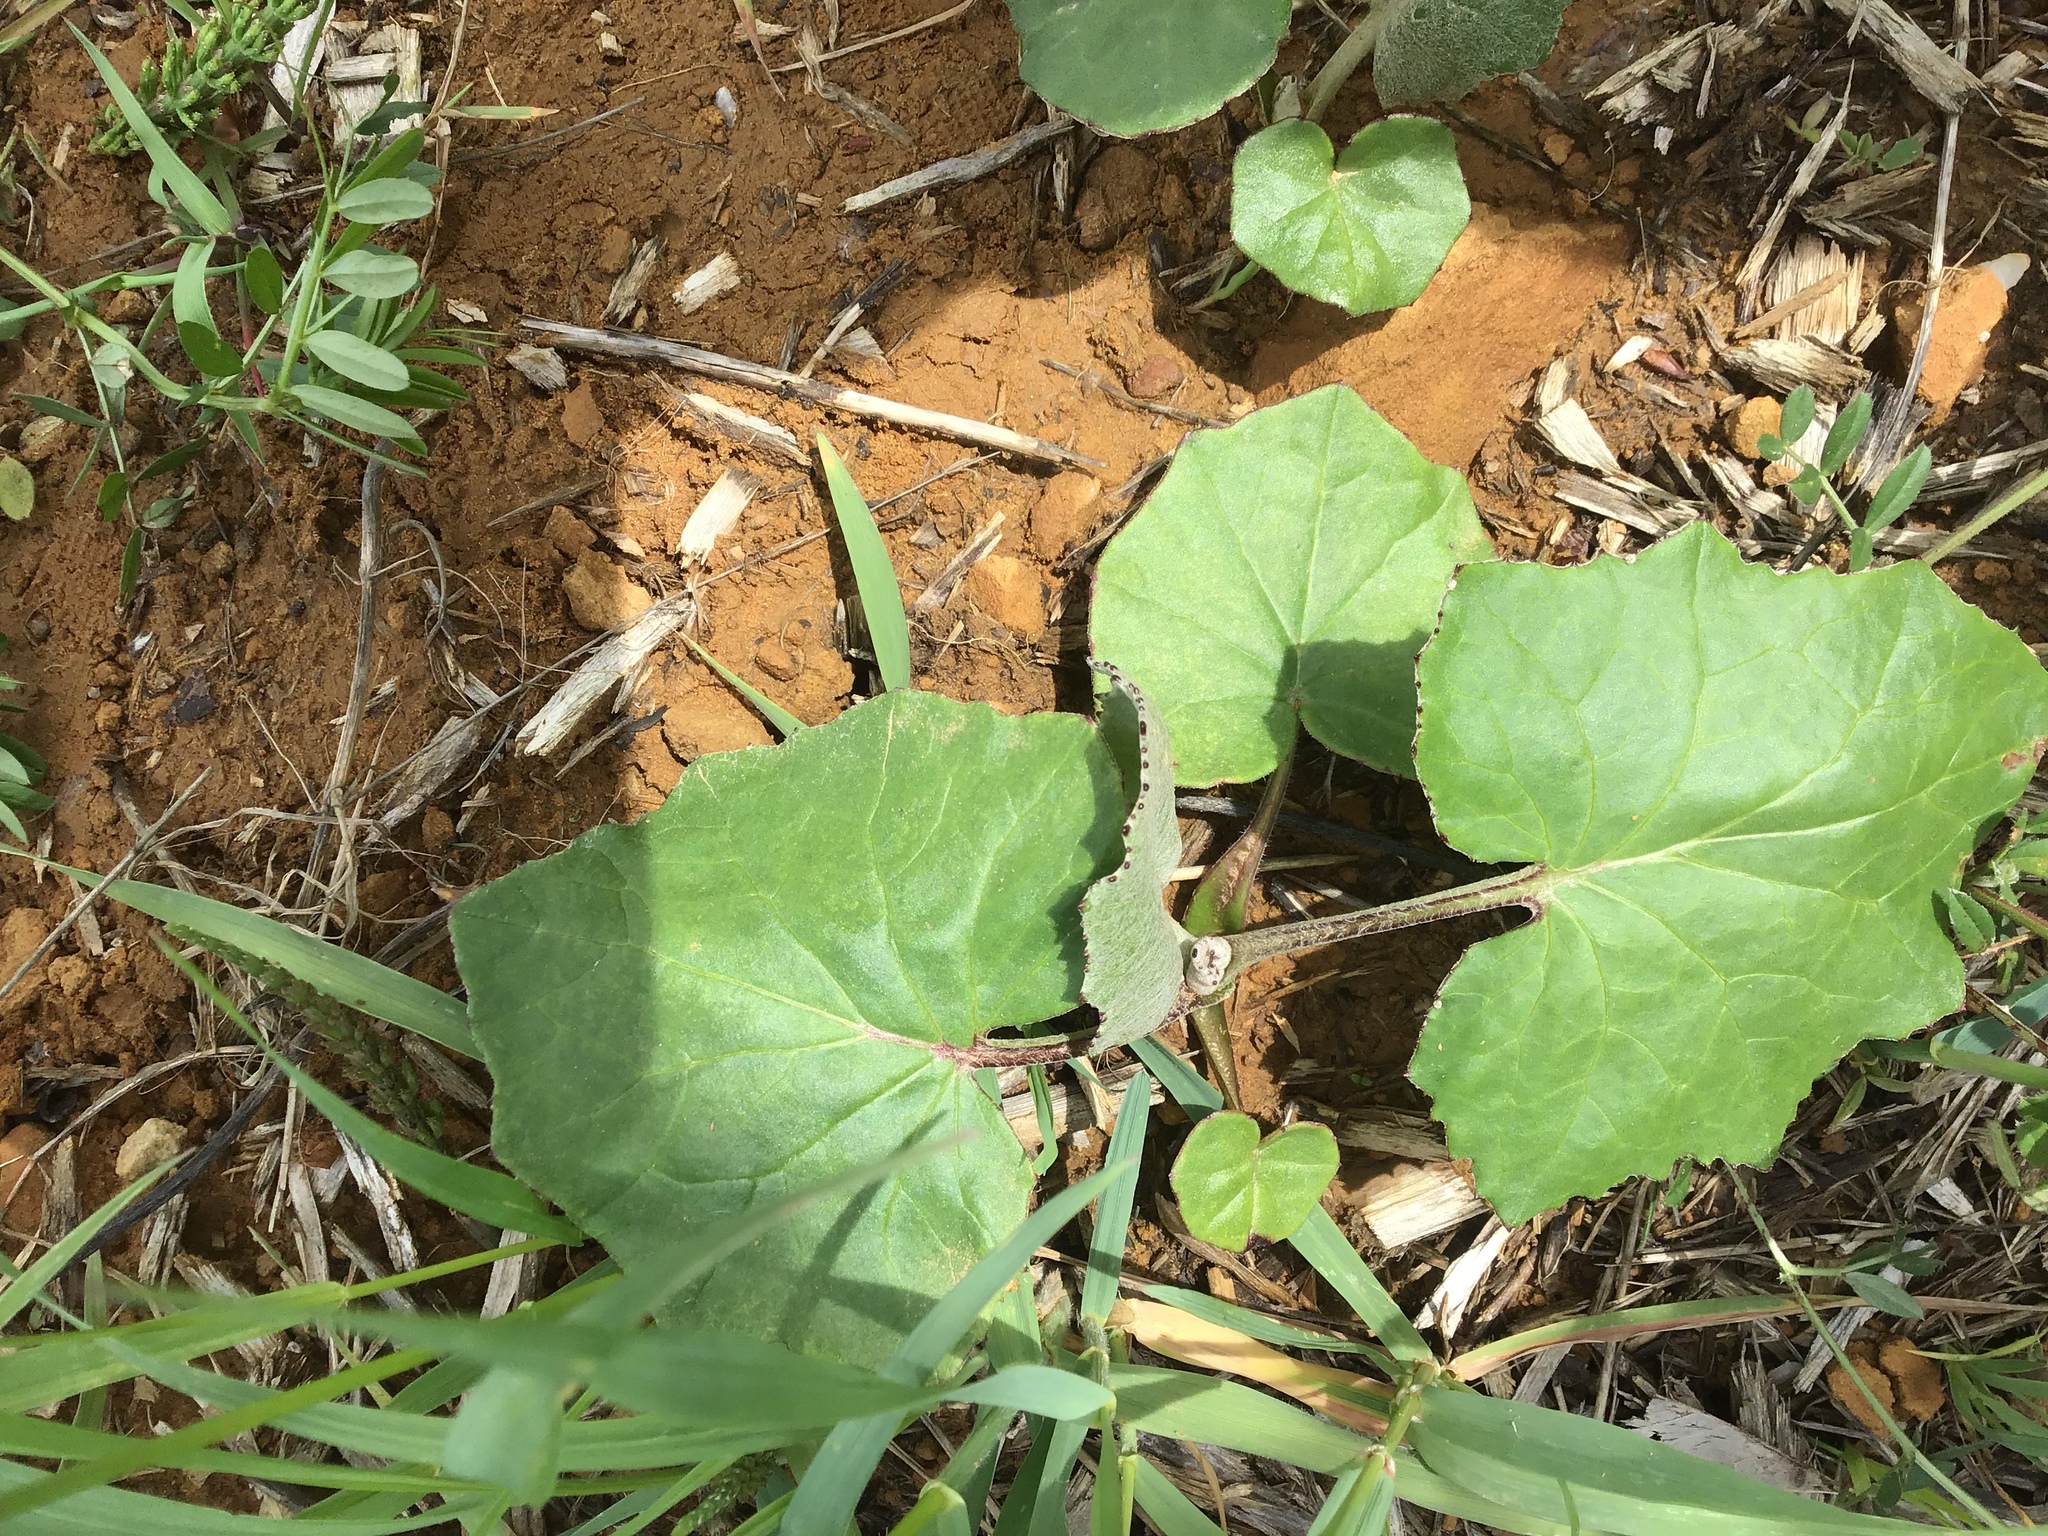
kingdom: Plantae
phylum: Tracheophyta
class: Magnoliopsida
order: Asterales
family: Asteraceae
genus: Tussilago
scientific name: Tussilago farfara
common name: Coltsfoot
